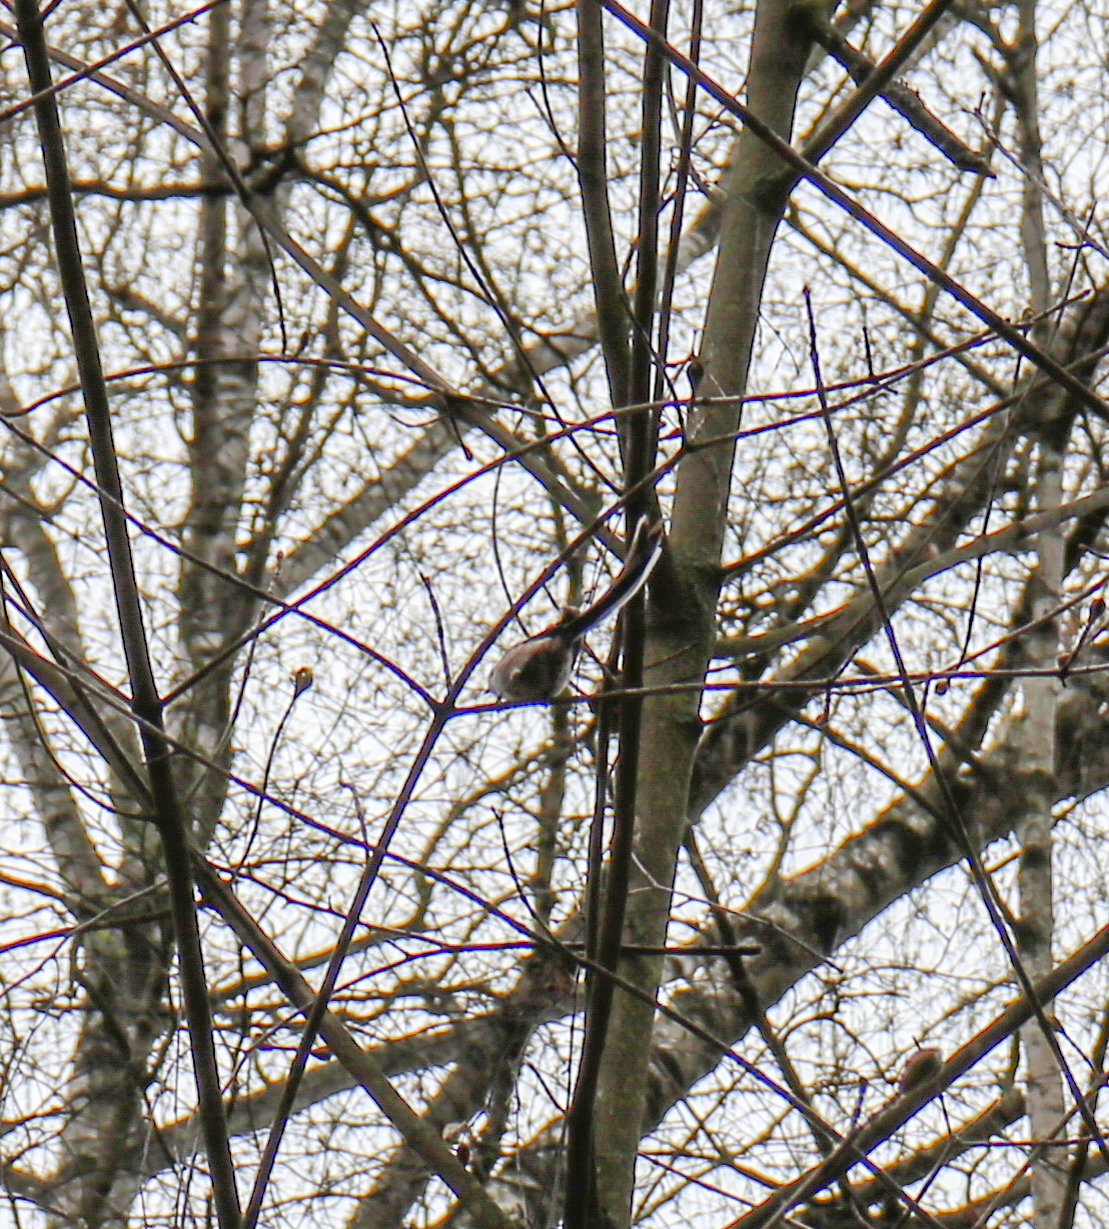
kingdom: Animalia
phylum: Chordata
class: Aves
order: Passeriformes
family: Aegithalidae
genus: Aegithalos
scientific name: Aegithalos caudatus
